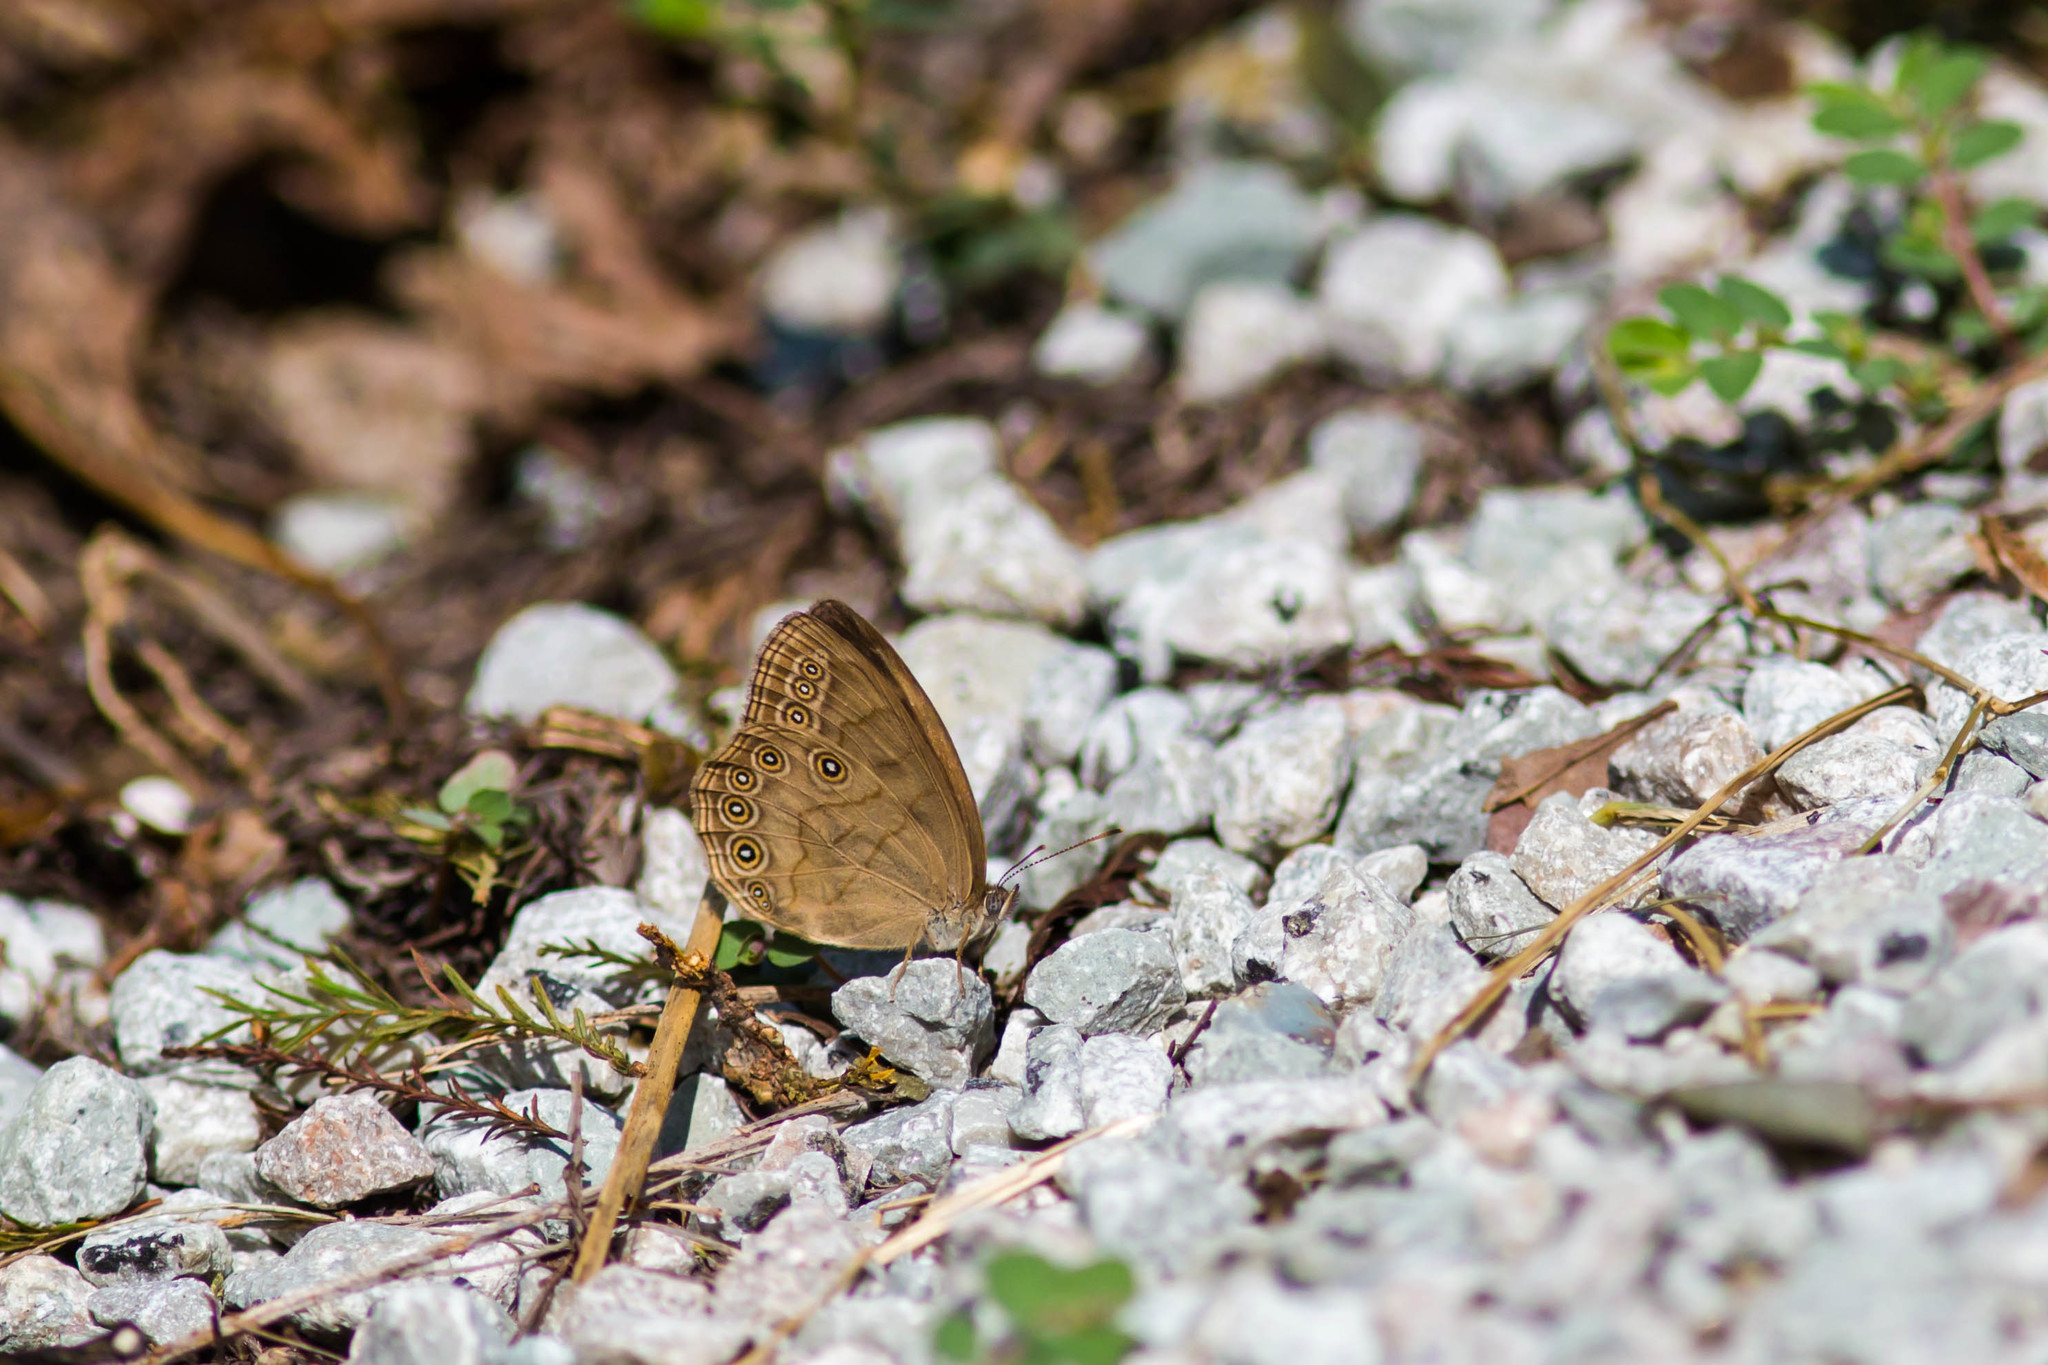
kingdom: Animalia
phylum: Arthropoda
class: Insecta
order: Lepidoptera
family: Nymphalidae
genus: Lethe
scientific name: Lethe eurydice
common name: Eyed brown
